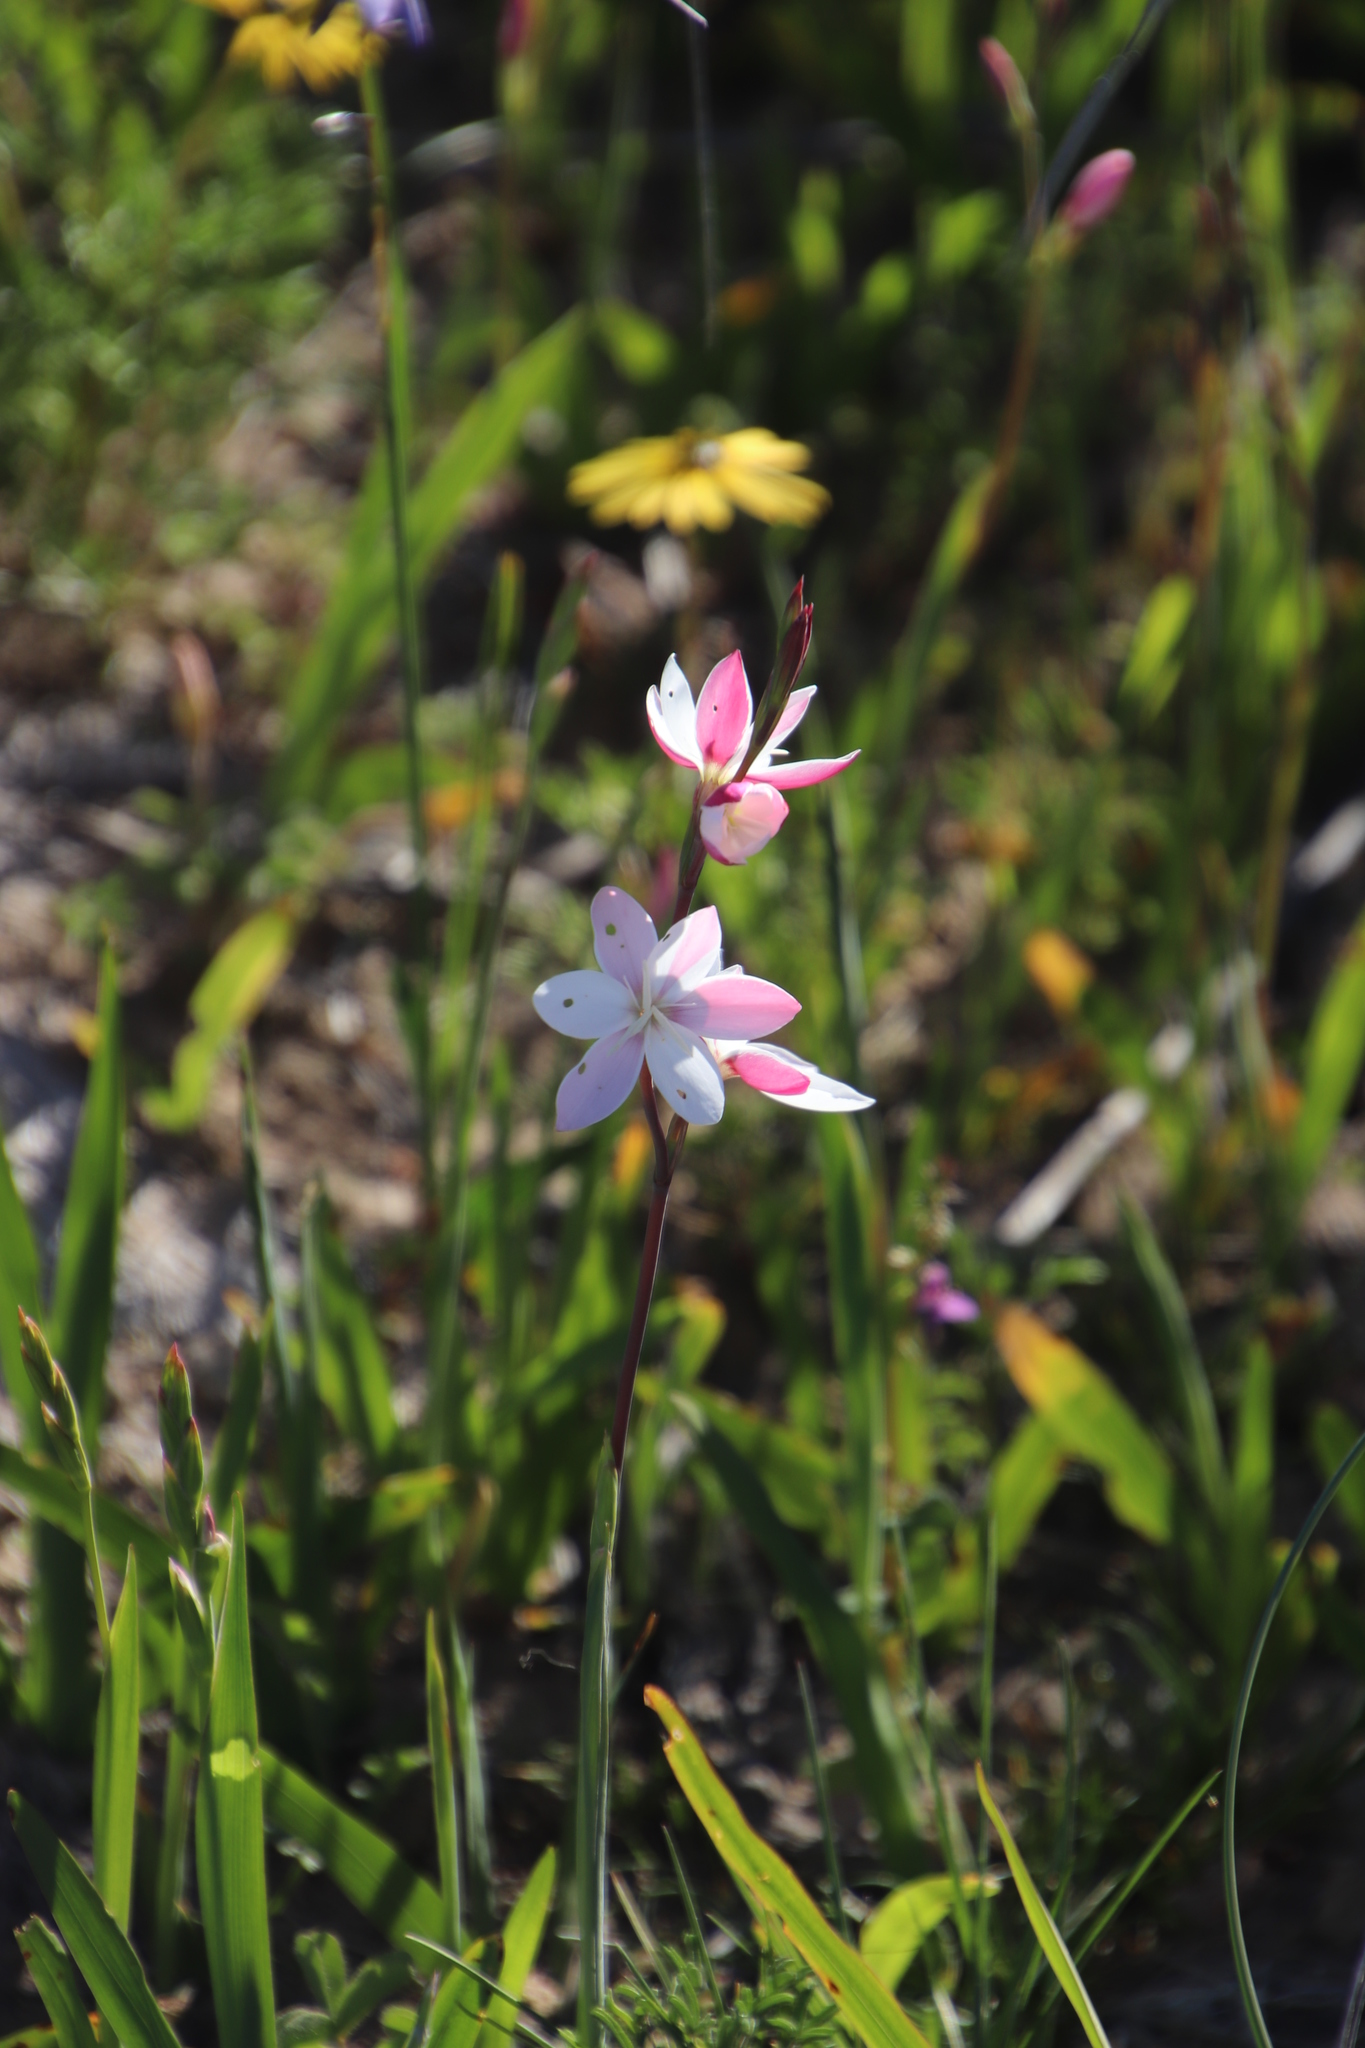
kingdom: Plantae
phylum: Tracheophyta
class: Liliopsida
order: Asparagales
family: Iridaceae
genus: Hesperantha
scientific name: Hesperantha cucullata
